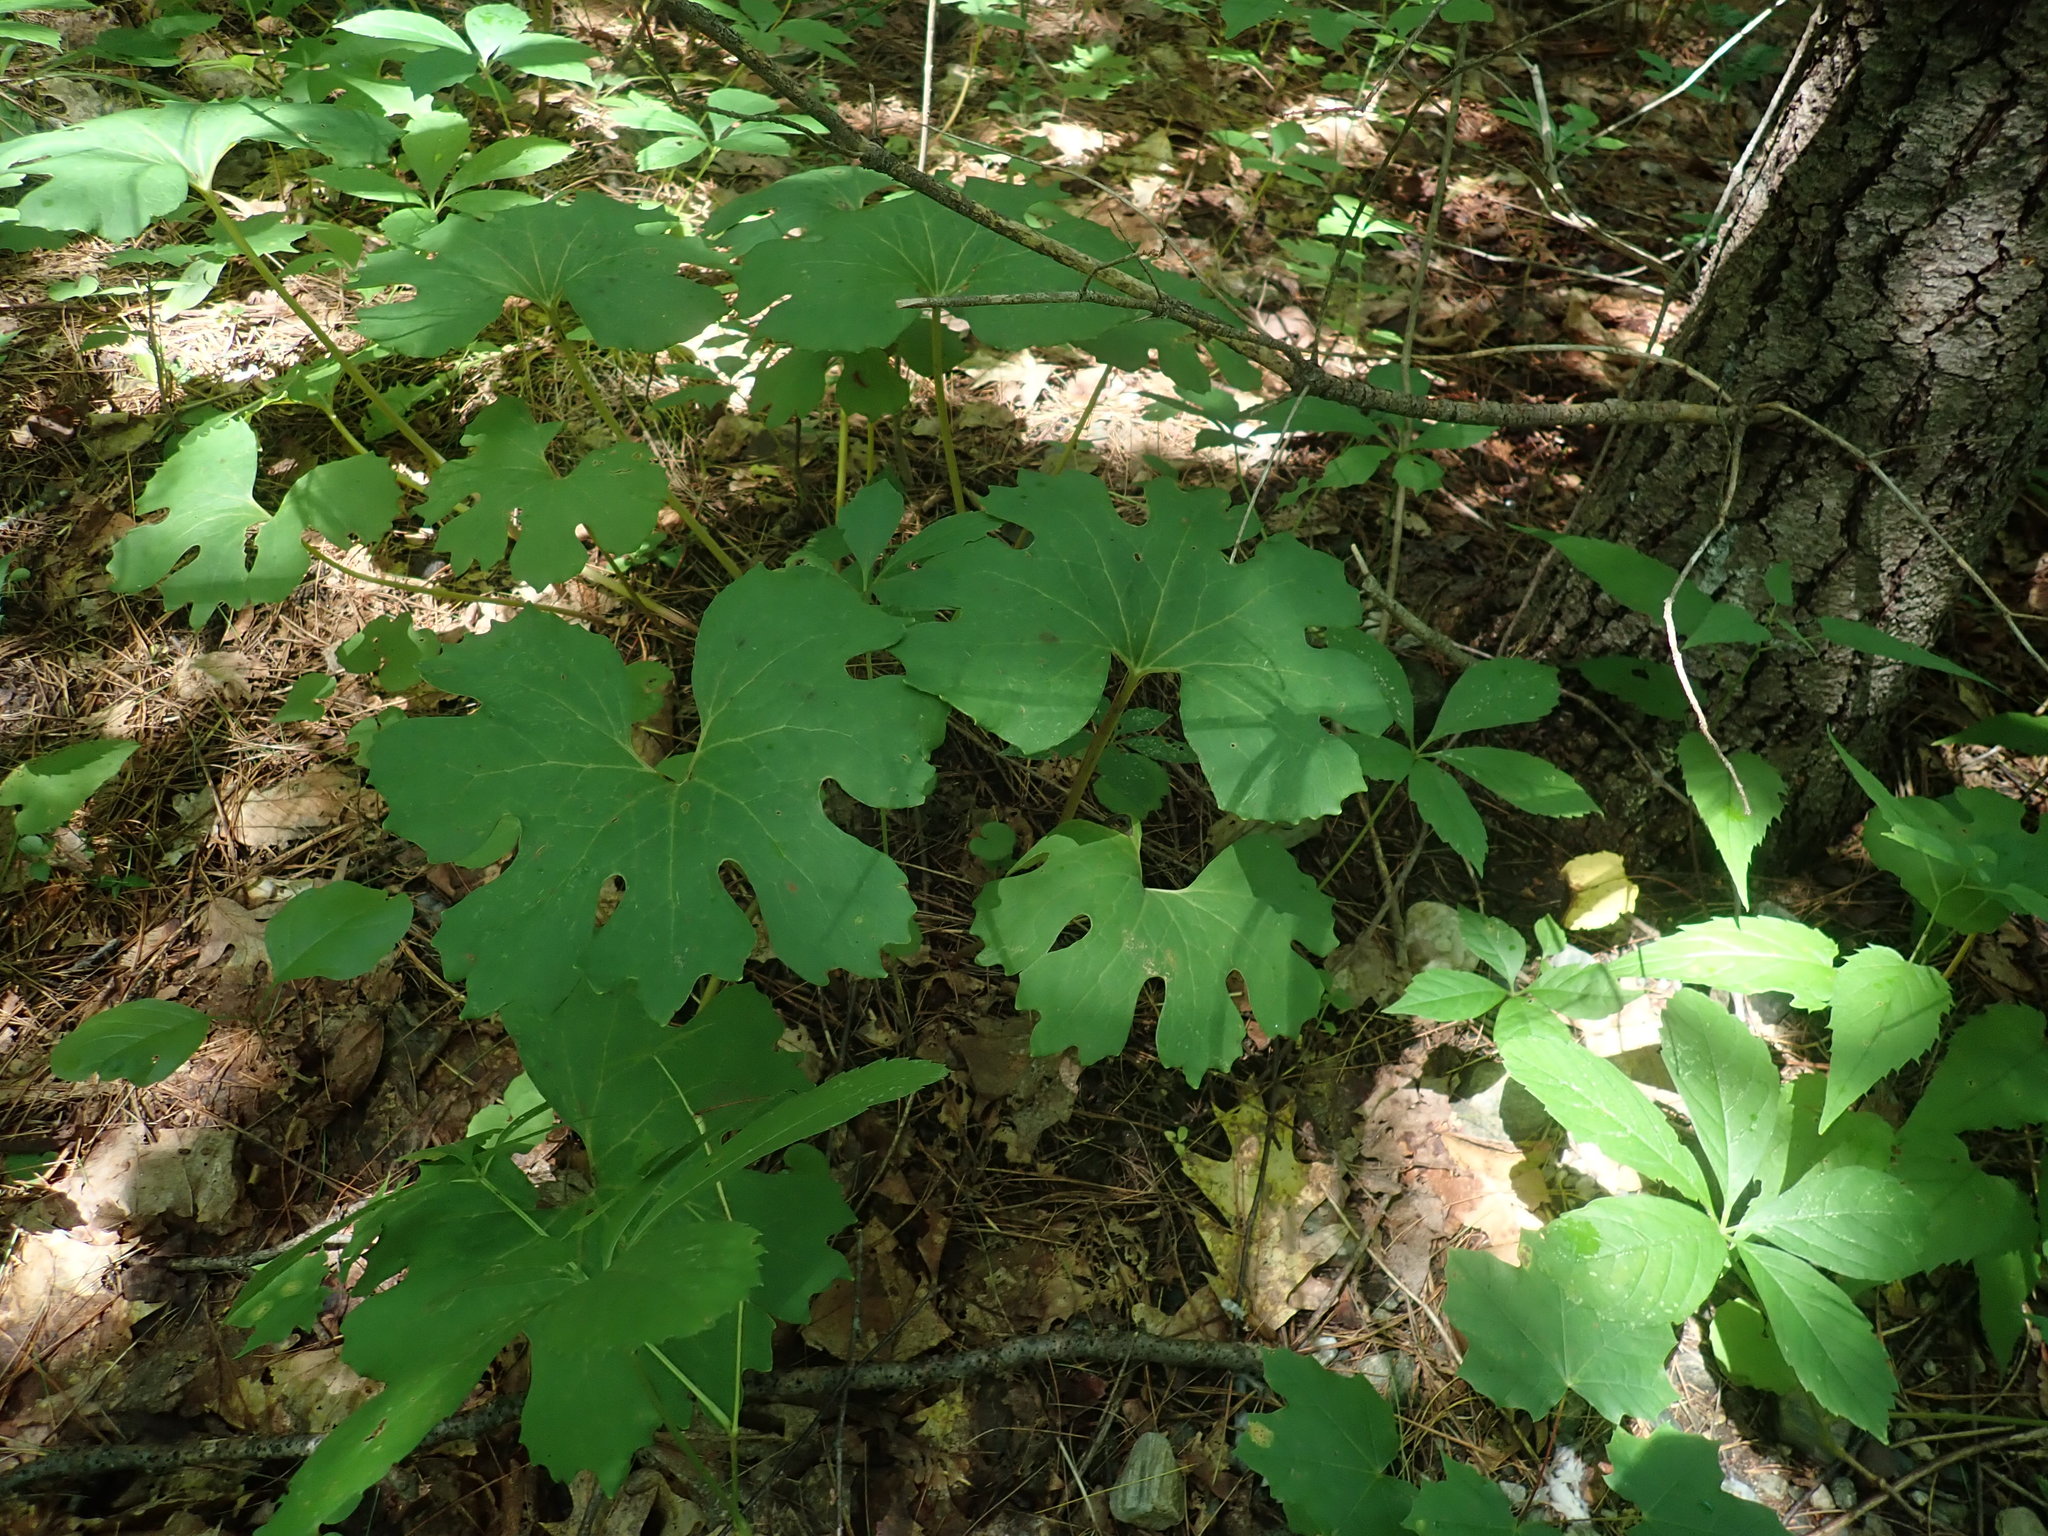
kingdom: Plantae
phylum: Tracheophyta
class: Magnoliopsida
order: Ranunculales
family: Papaveraceae
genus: Sanguinaria
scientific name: Sanguinaria canadensis
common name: Bloodroot
